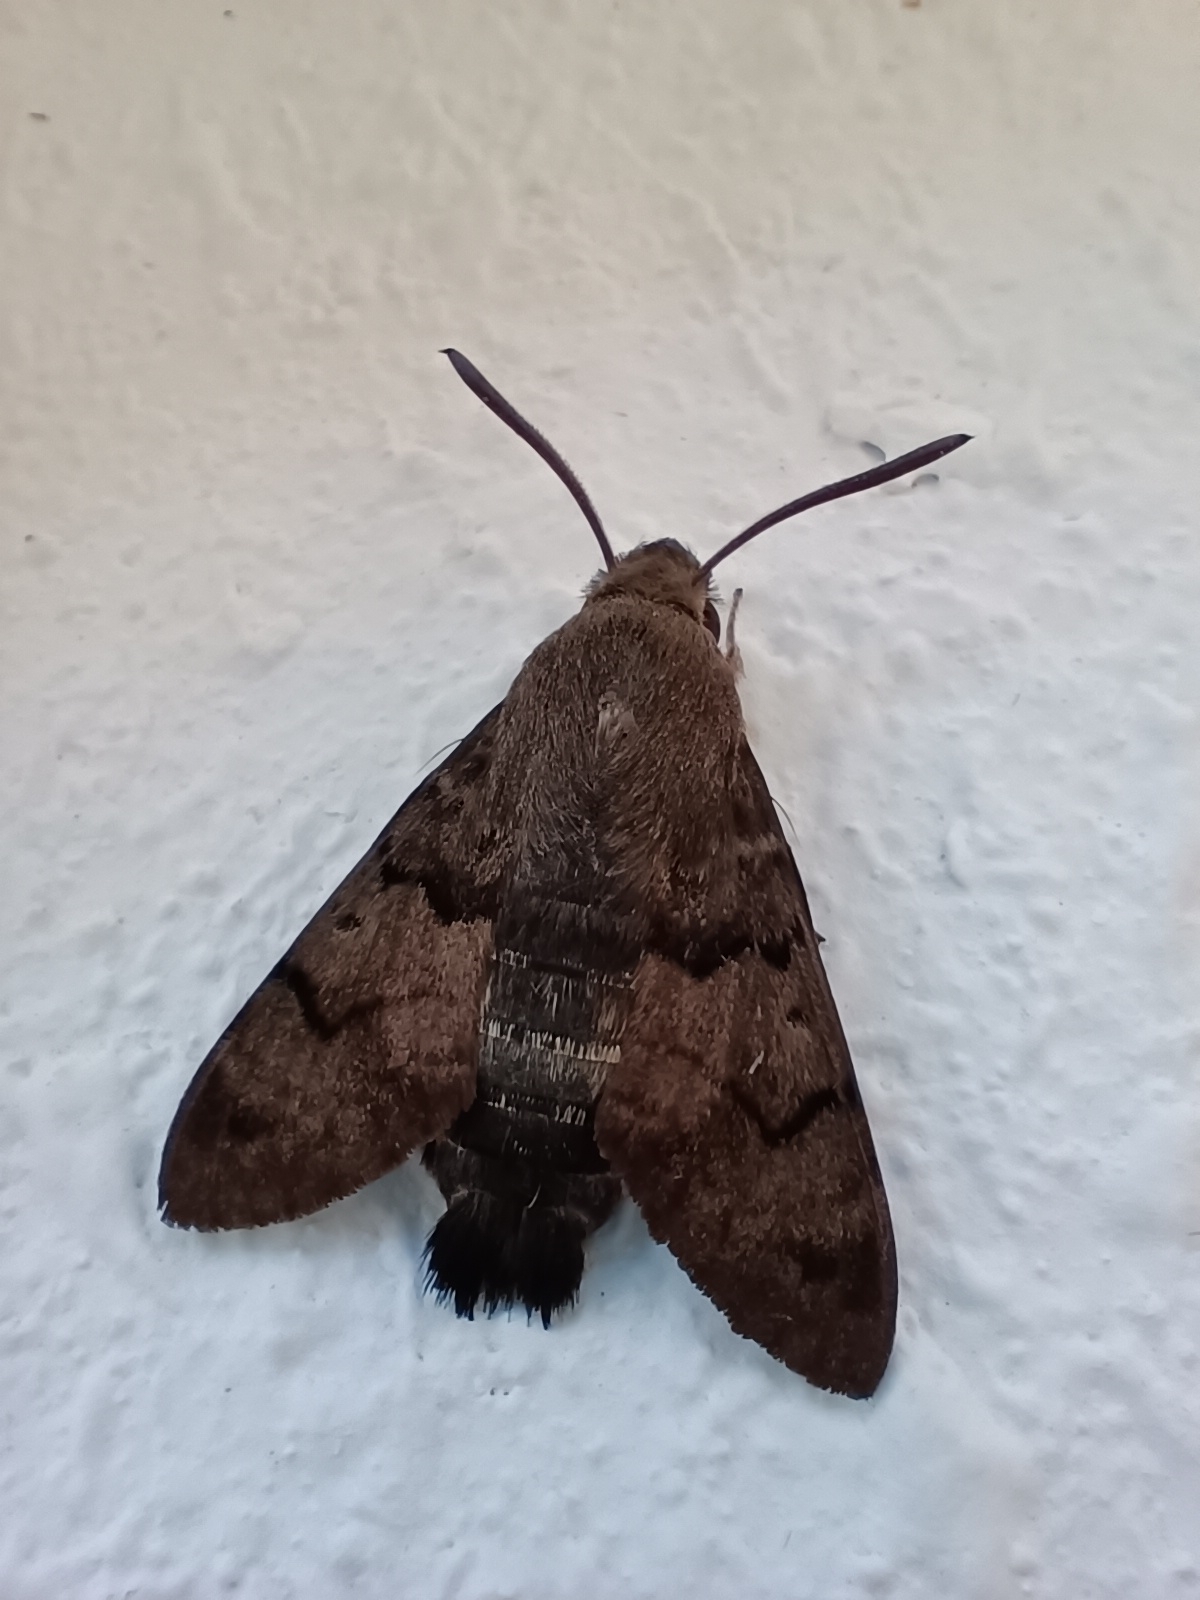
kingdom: Animalia
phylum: Arthropoda
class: Insecta
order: Lepidoptera
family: Sphingidae
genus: Macroglossum
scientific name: Macroglossum stellatarum
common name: Humming-bird hawk-moth
